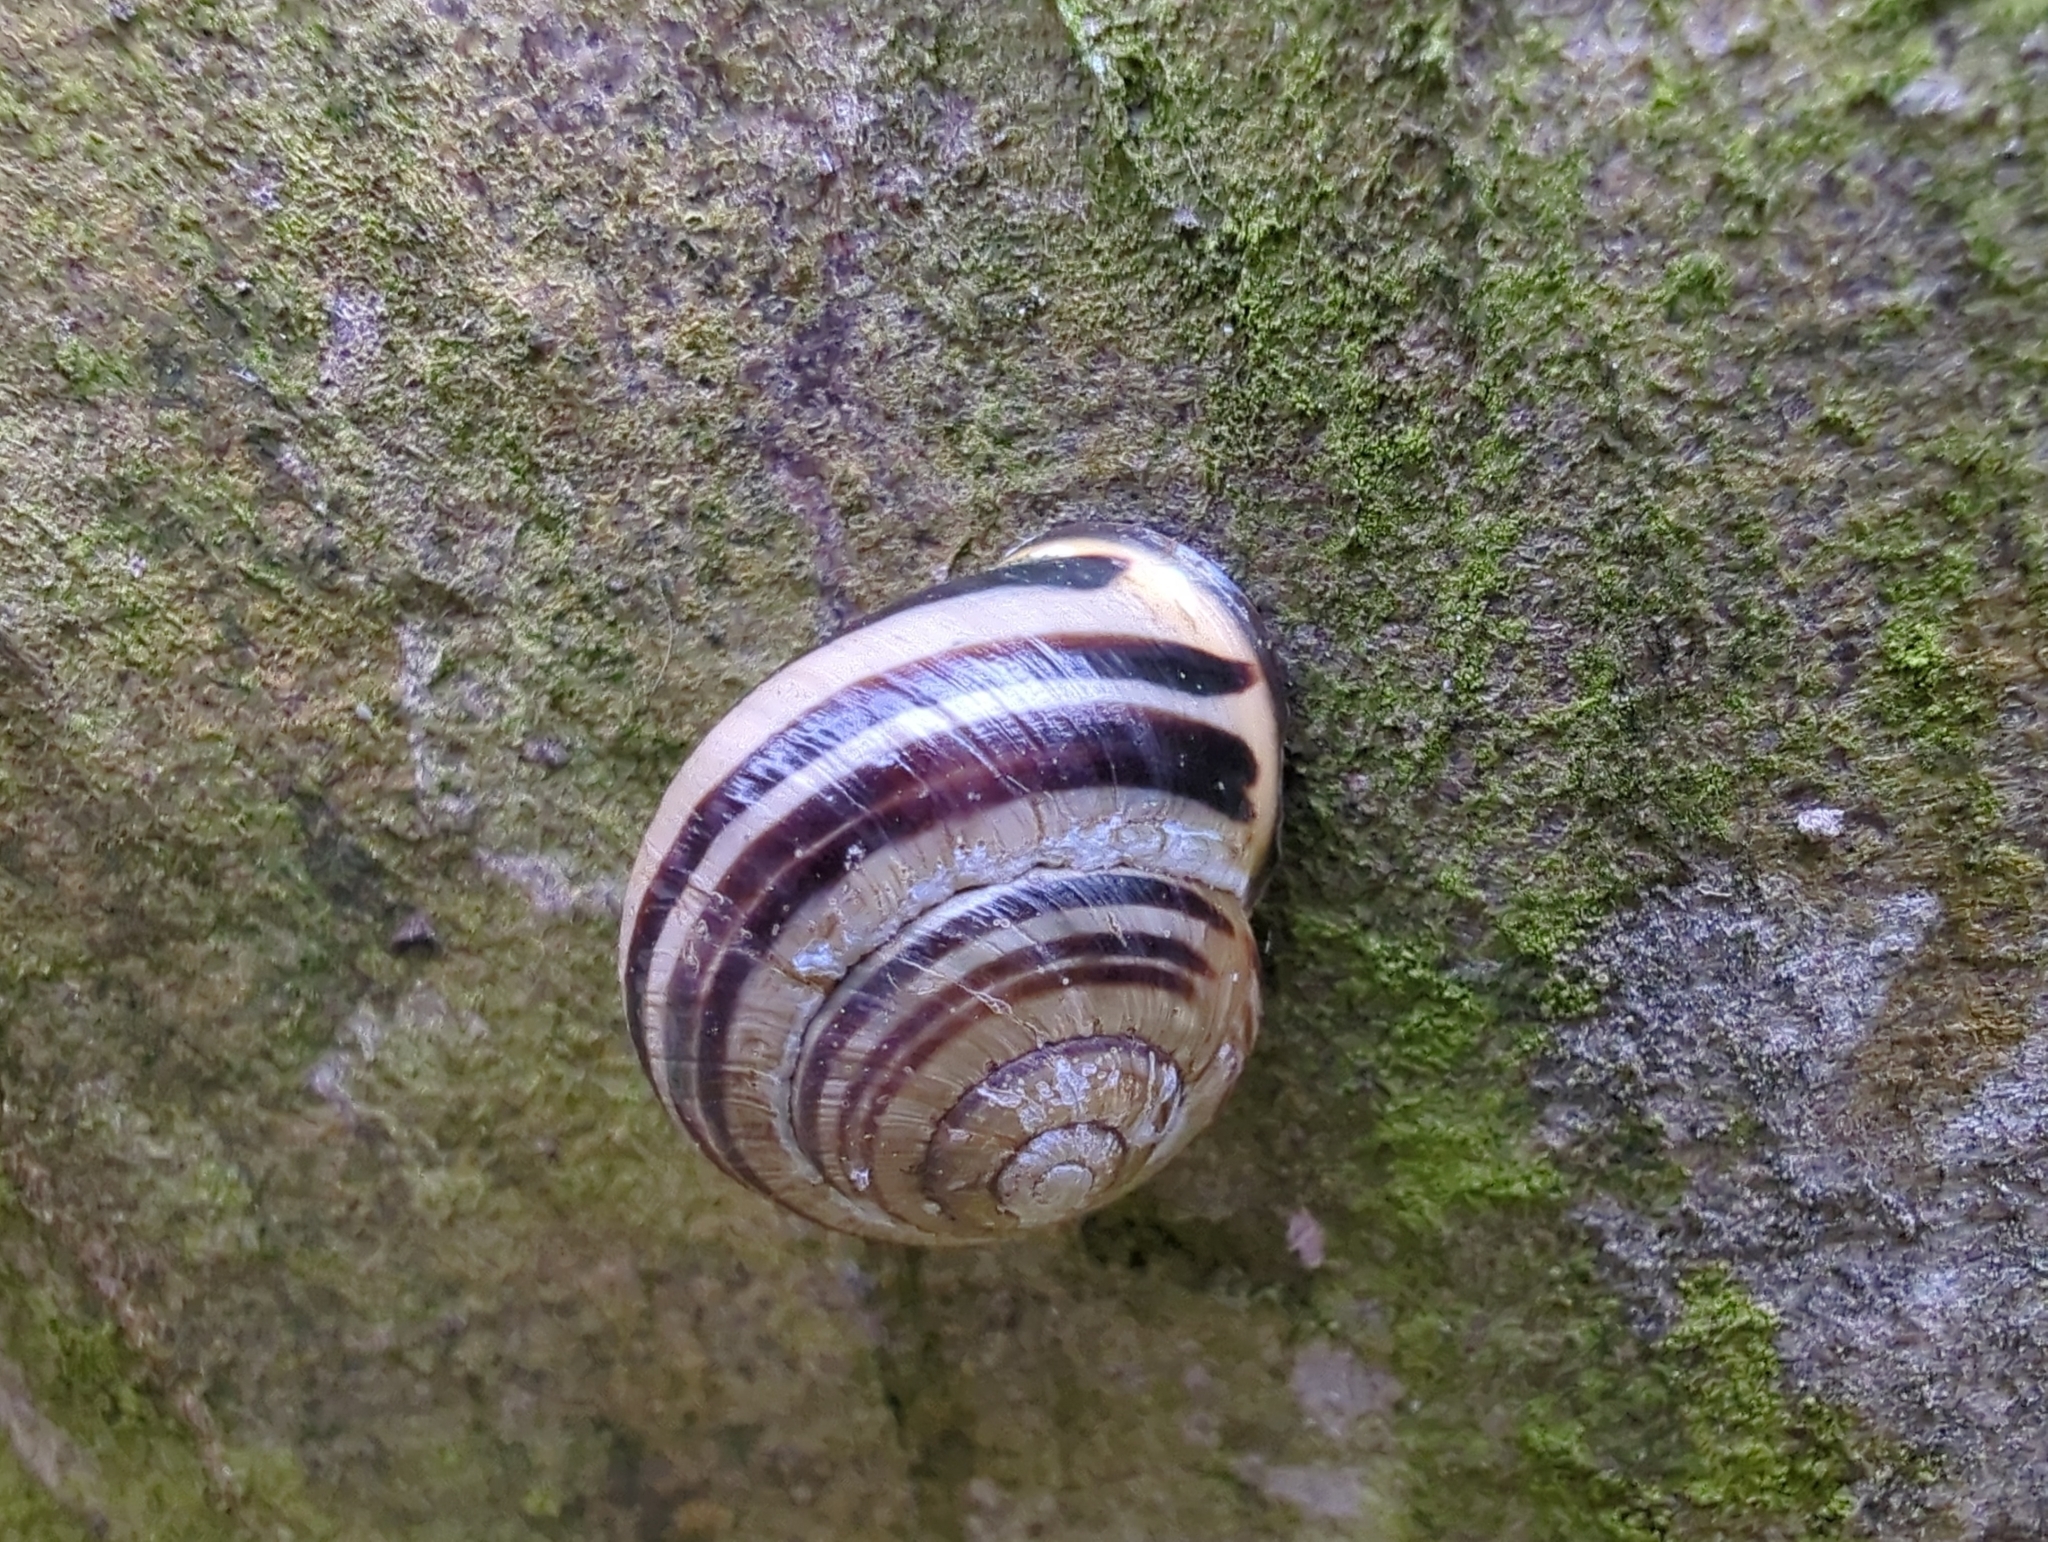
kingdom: Animalia
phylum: Mollusca
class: Gastropoda
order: Stylommatophora
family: Helicidae
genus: Cepaea
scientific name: Cepaea nemoralis
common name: Grovesnail
